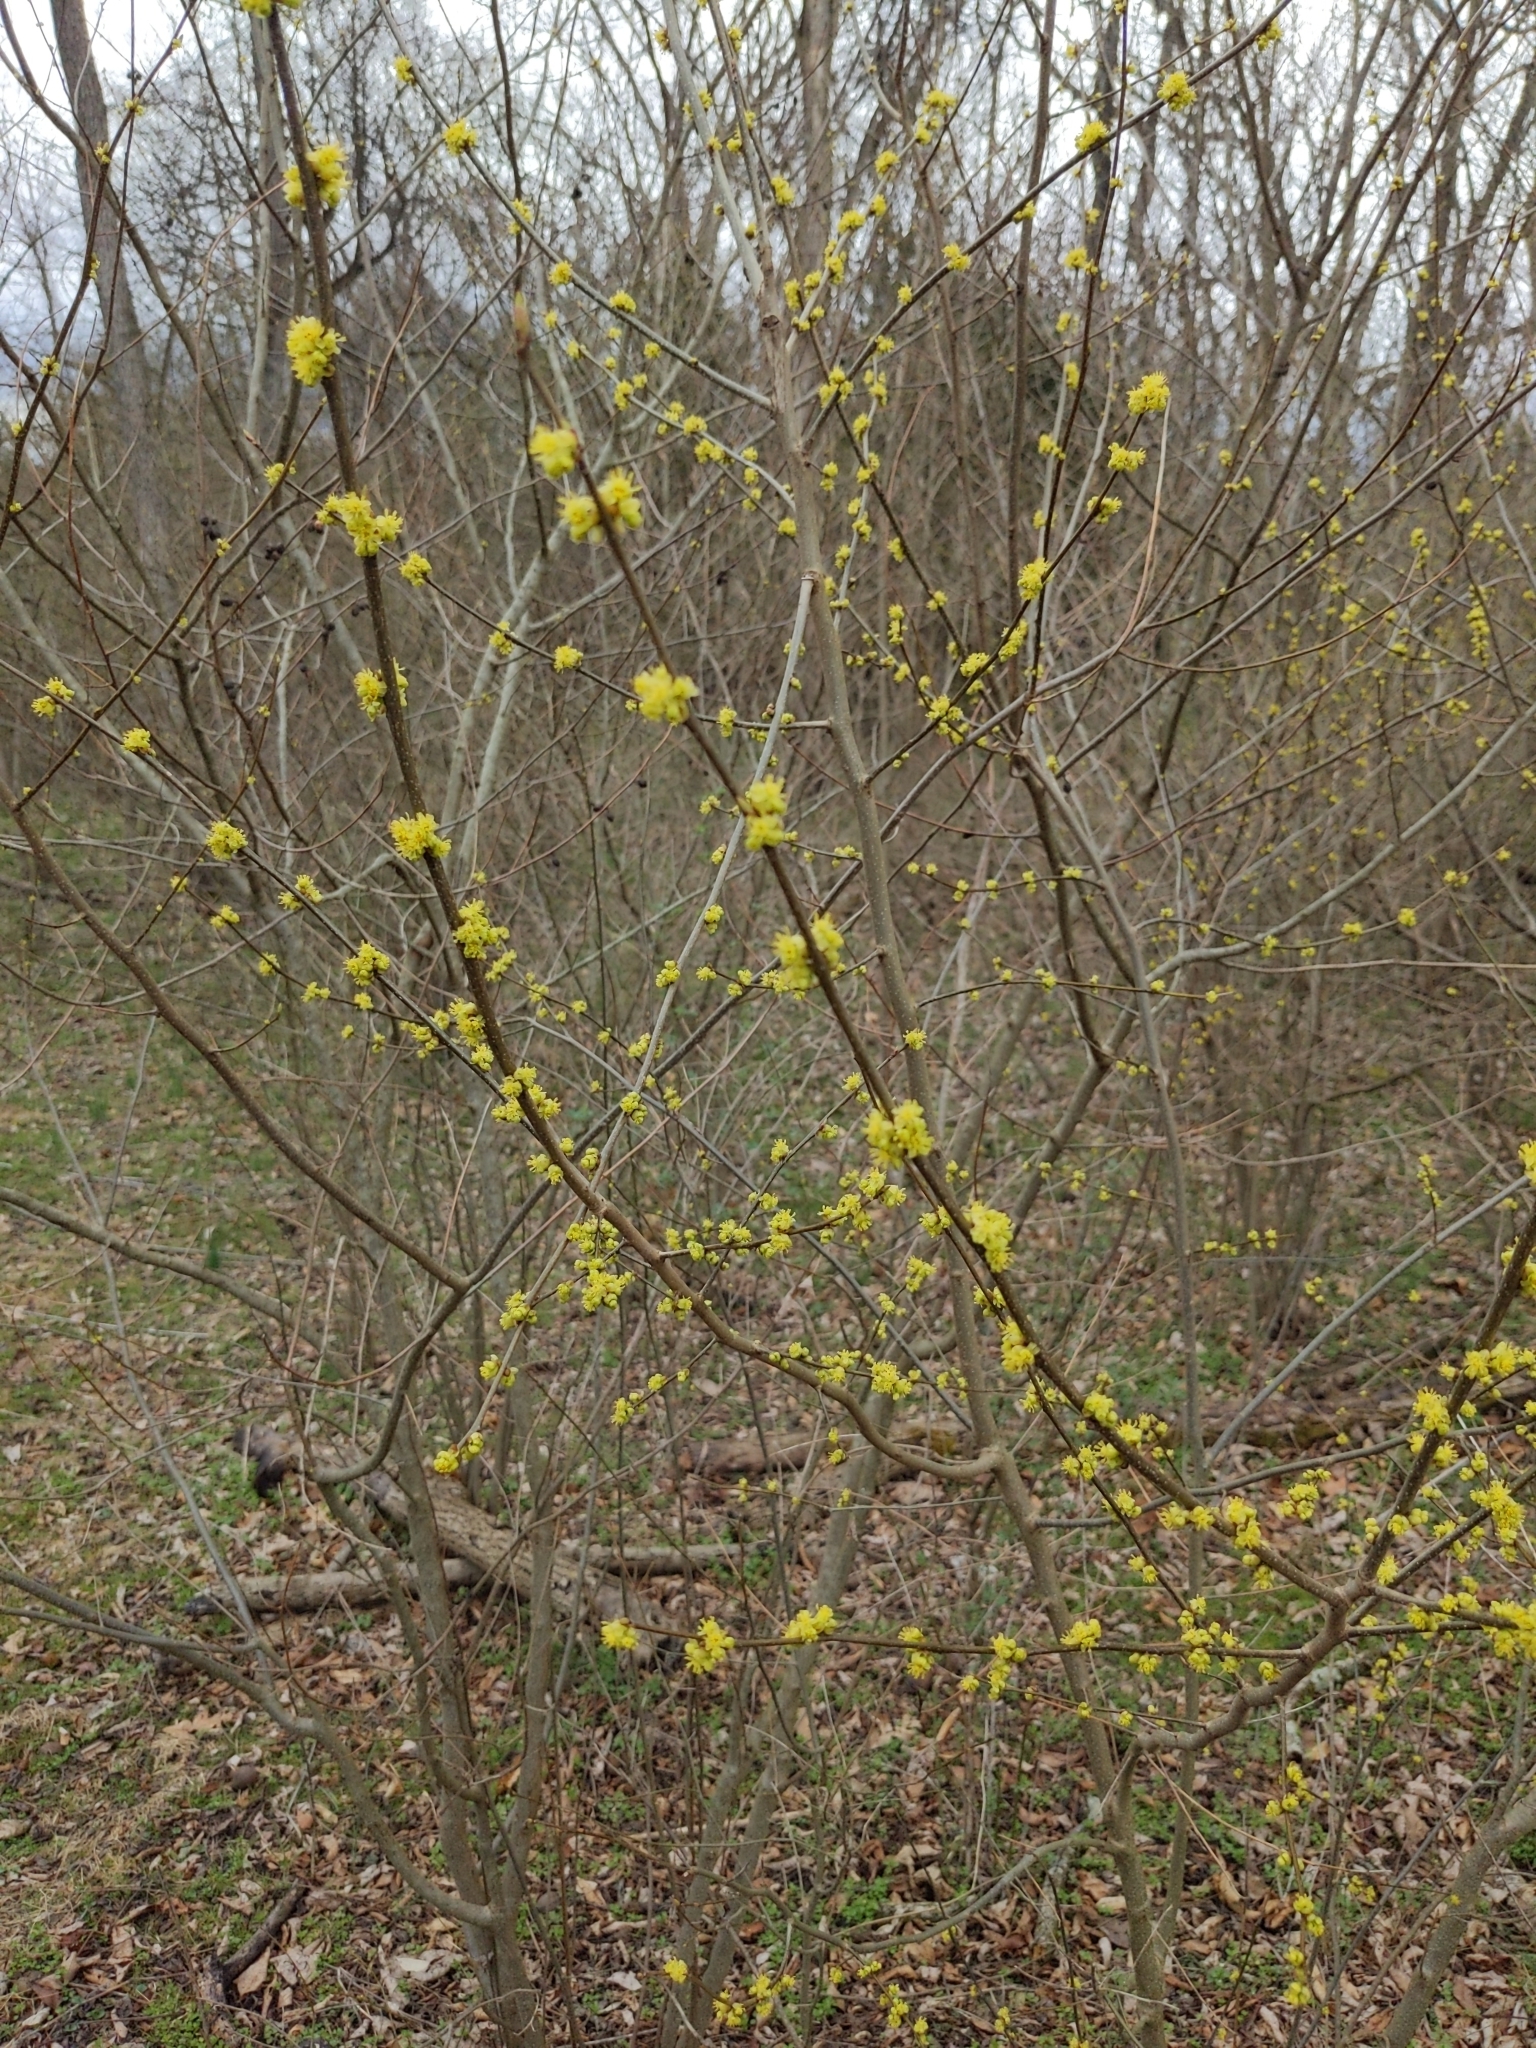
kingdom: Plantae
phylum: Tracheophyta
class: Magnoliopsida
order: Laurales
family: Lauraceae
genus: Lindera
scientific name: Lindera benzoin
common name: Spicebush
